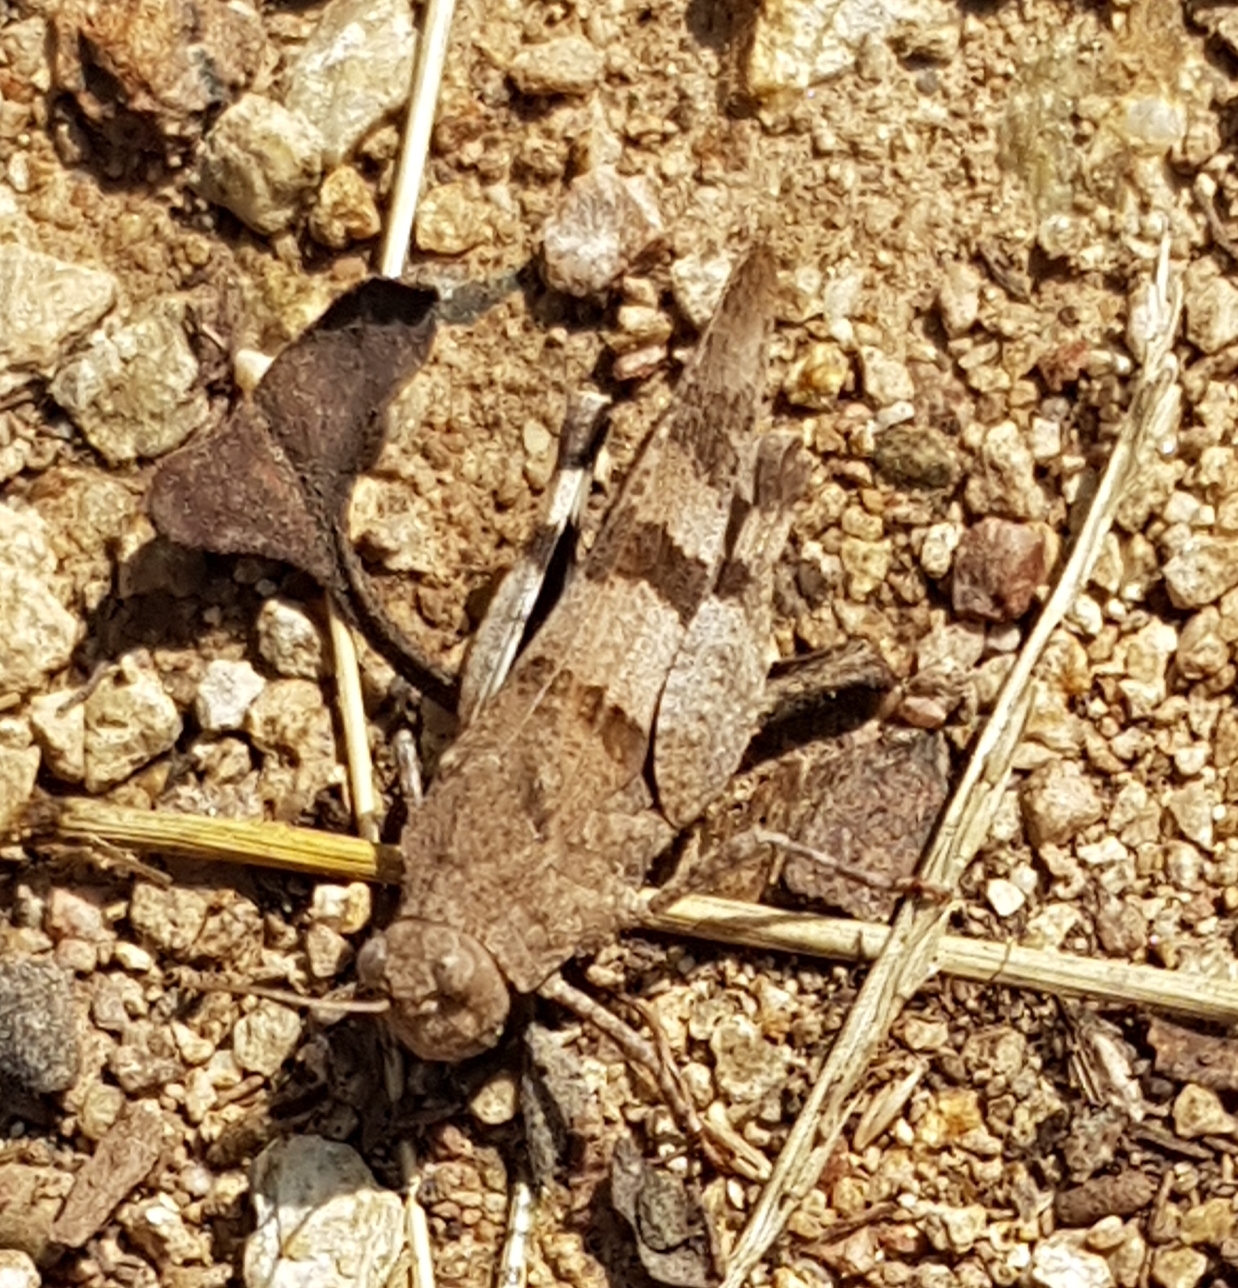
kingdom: Animalia
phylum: Arthropoda
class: Insecta
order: Orthoptera
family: Acrididae
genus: Oedipoda
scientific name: Oedipoda caerulescens
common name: Blue-winged grasshopper
